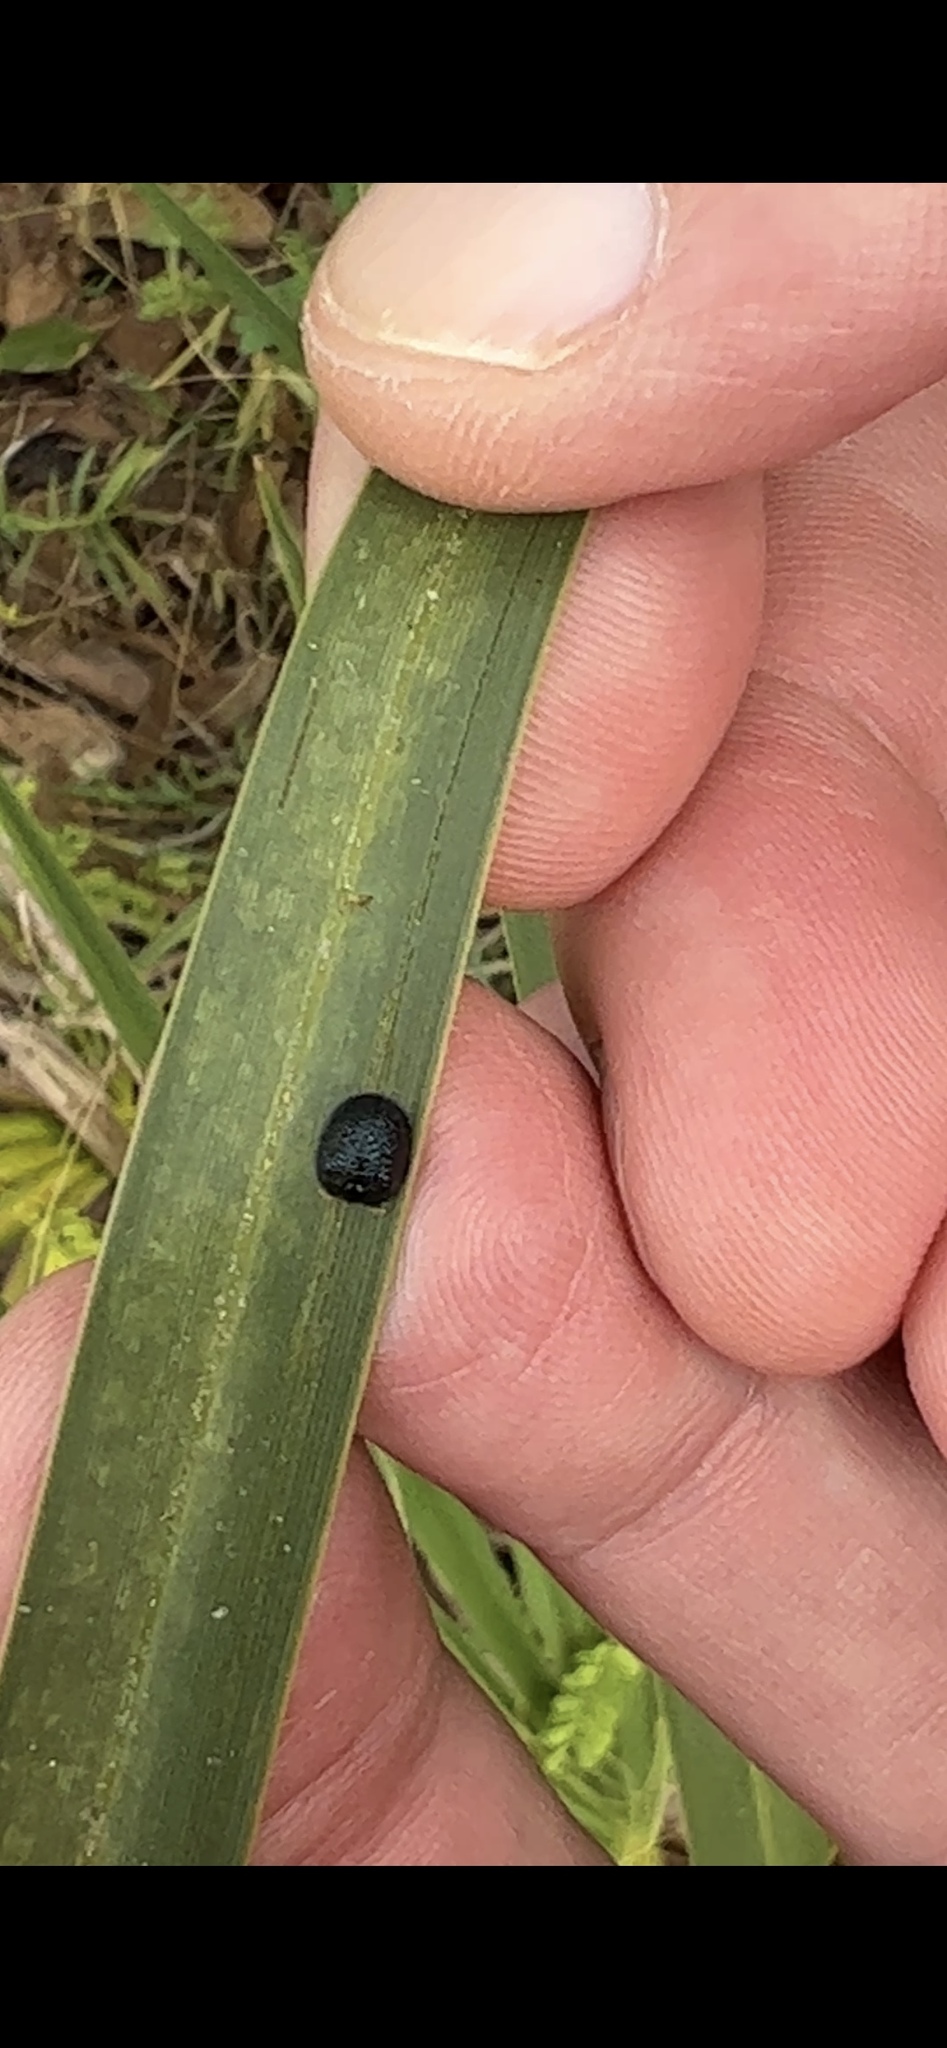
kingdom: Animalia
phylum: Arthropoda
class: Insecta
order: Coleoptera
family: Chrysomelidae
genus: Hemisphaerota
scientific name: Hemisphaerota cyanea
